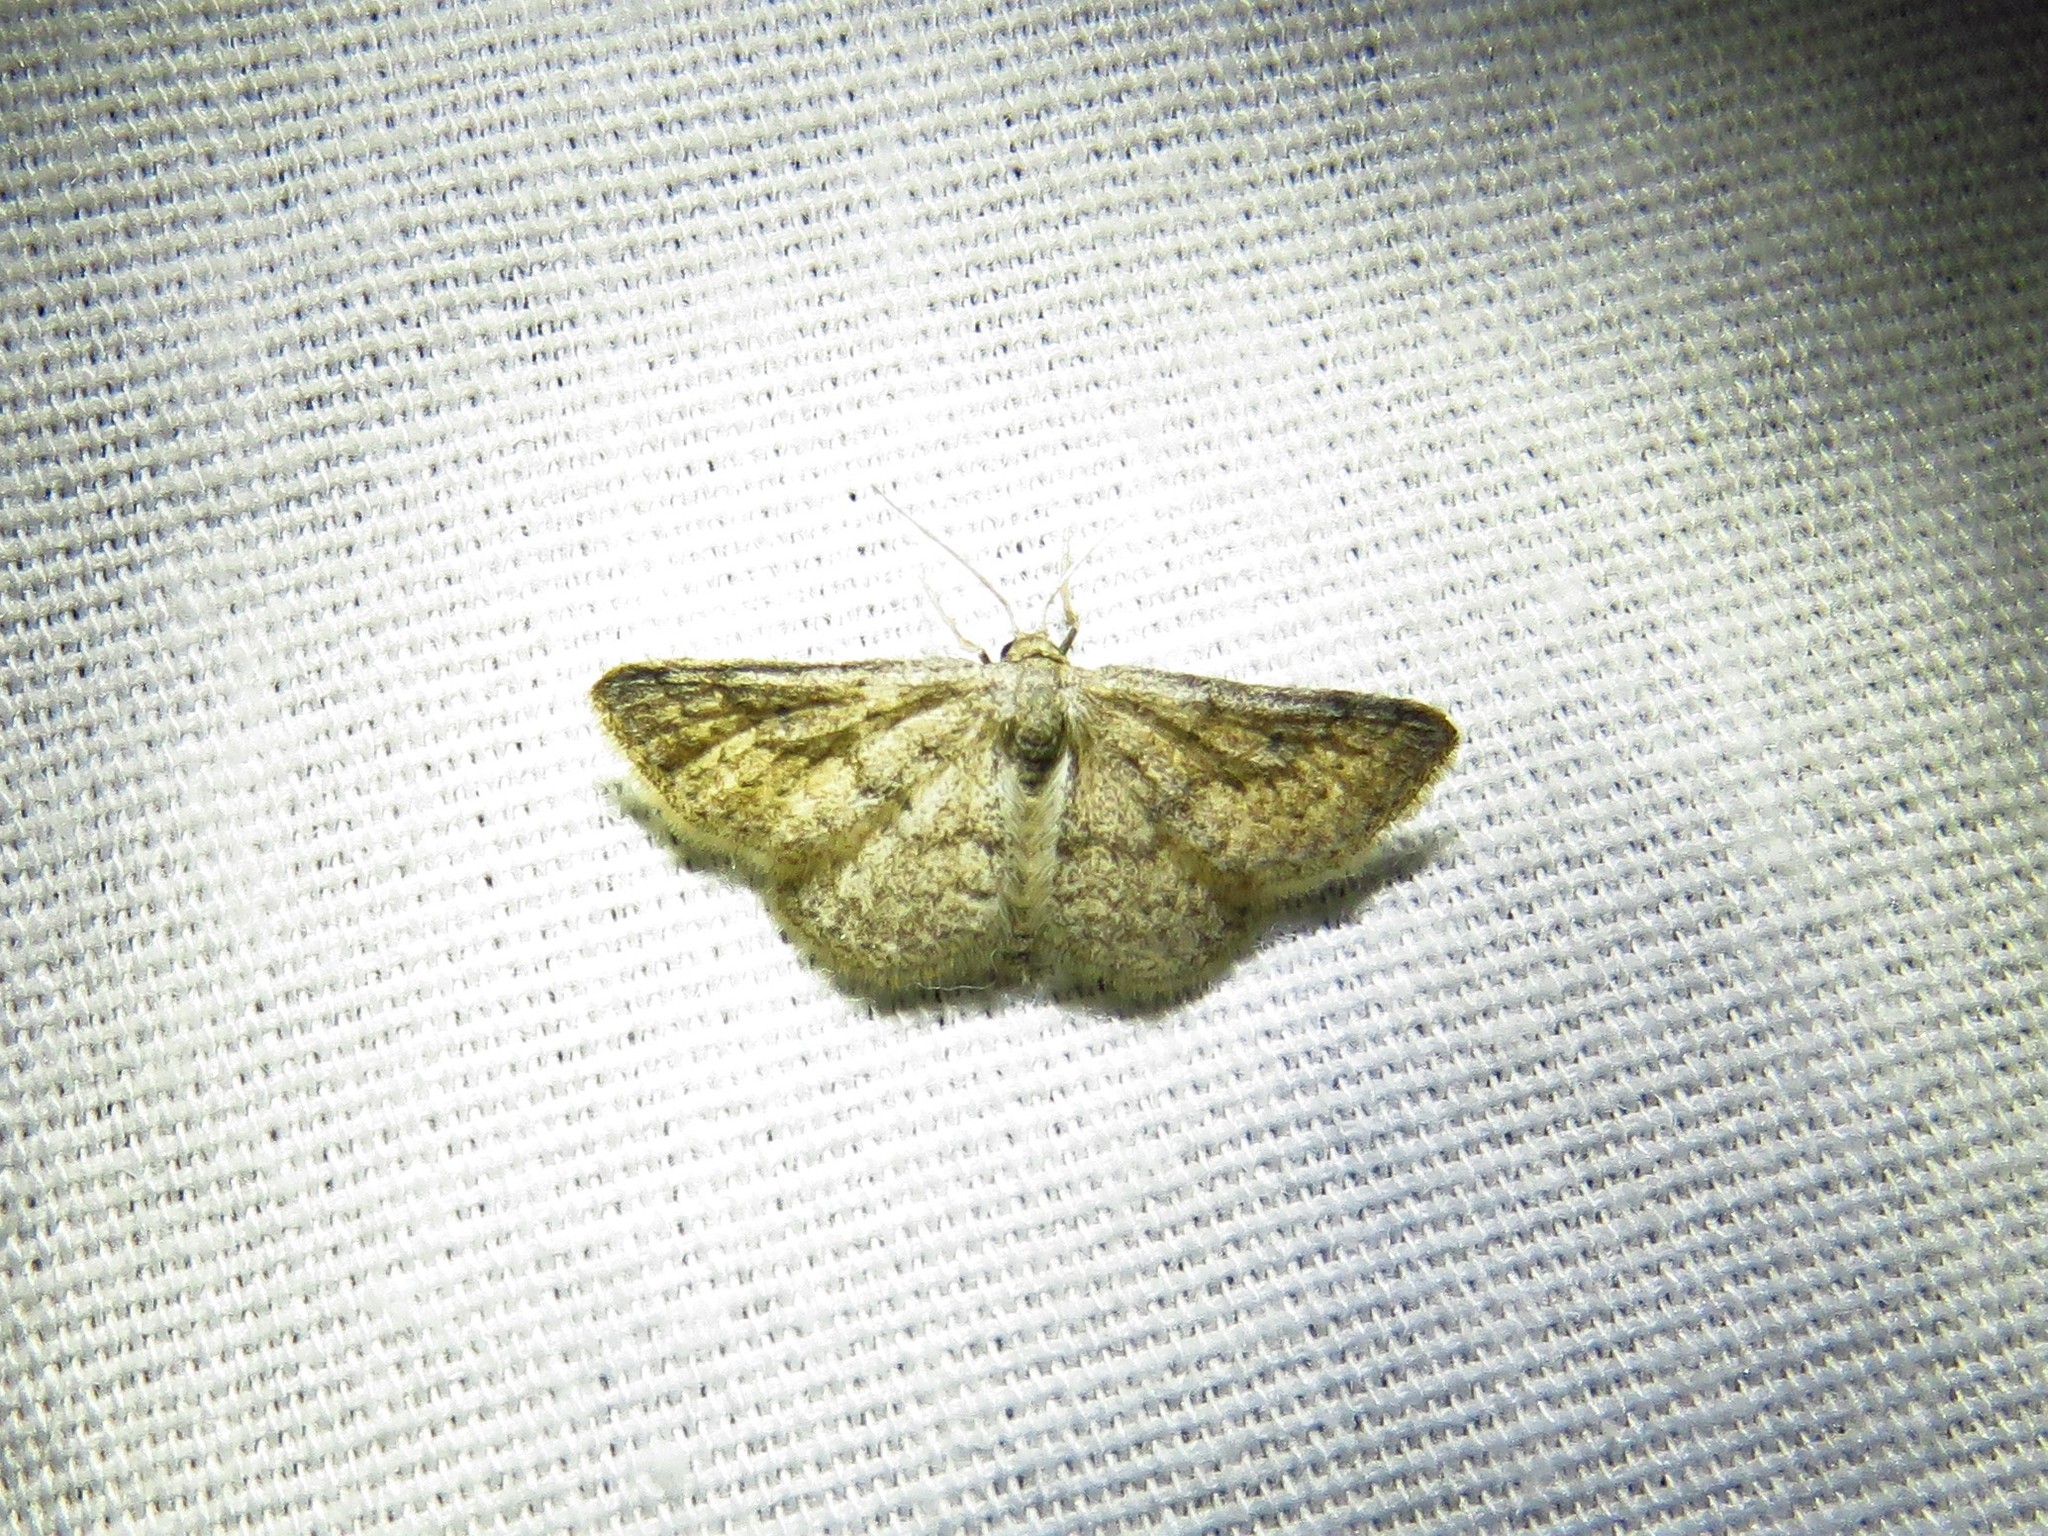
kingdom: Animalia
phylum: Arthropoda
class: Insecta
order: Lepidoptera
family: Geometridae
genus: Lobocleta
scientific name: Lobocleta ossularia
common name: Drab brown wave
